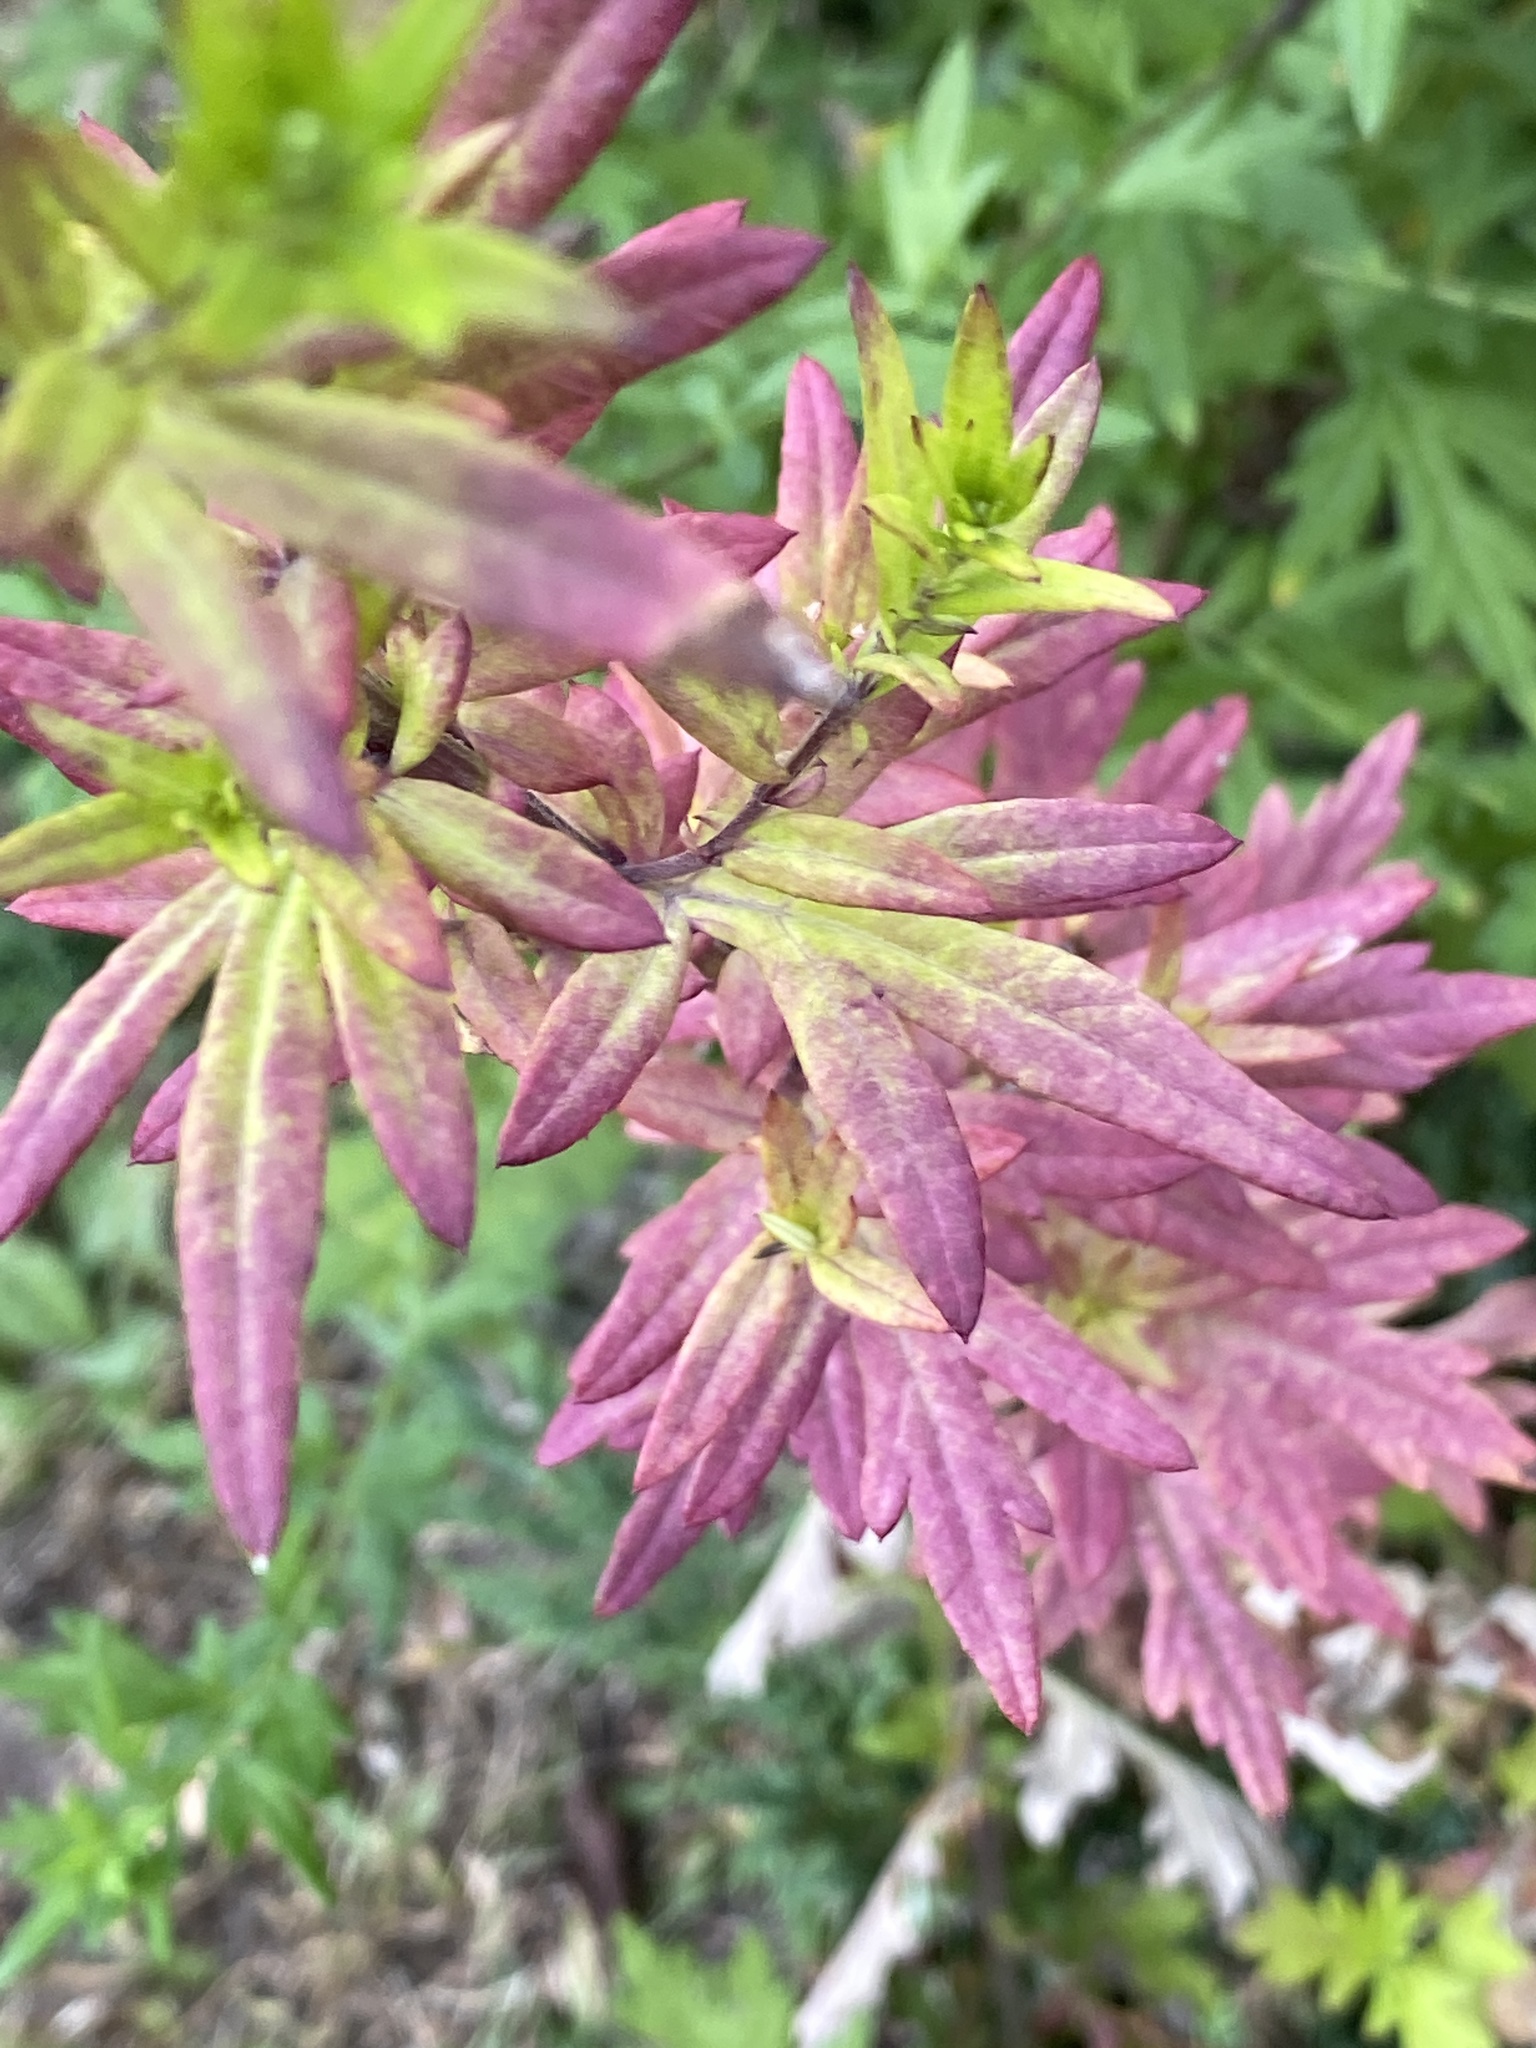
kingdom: Plantae
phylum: Tracheophyta
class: Magnoliopsida
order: Asterales
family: Asteraceae
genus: Artemisia
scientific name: Artemisia vulgaris
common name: Mugwort
